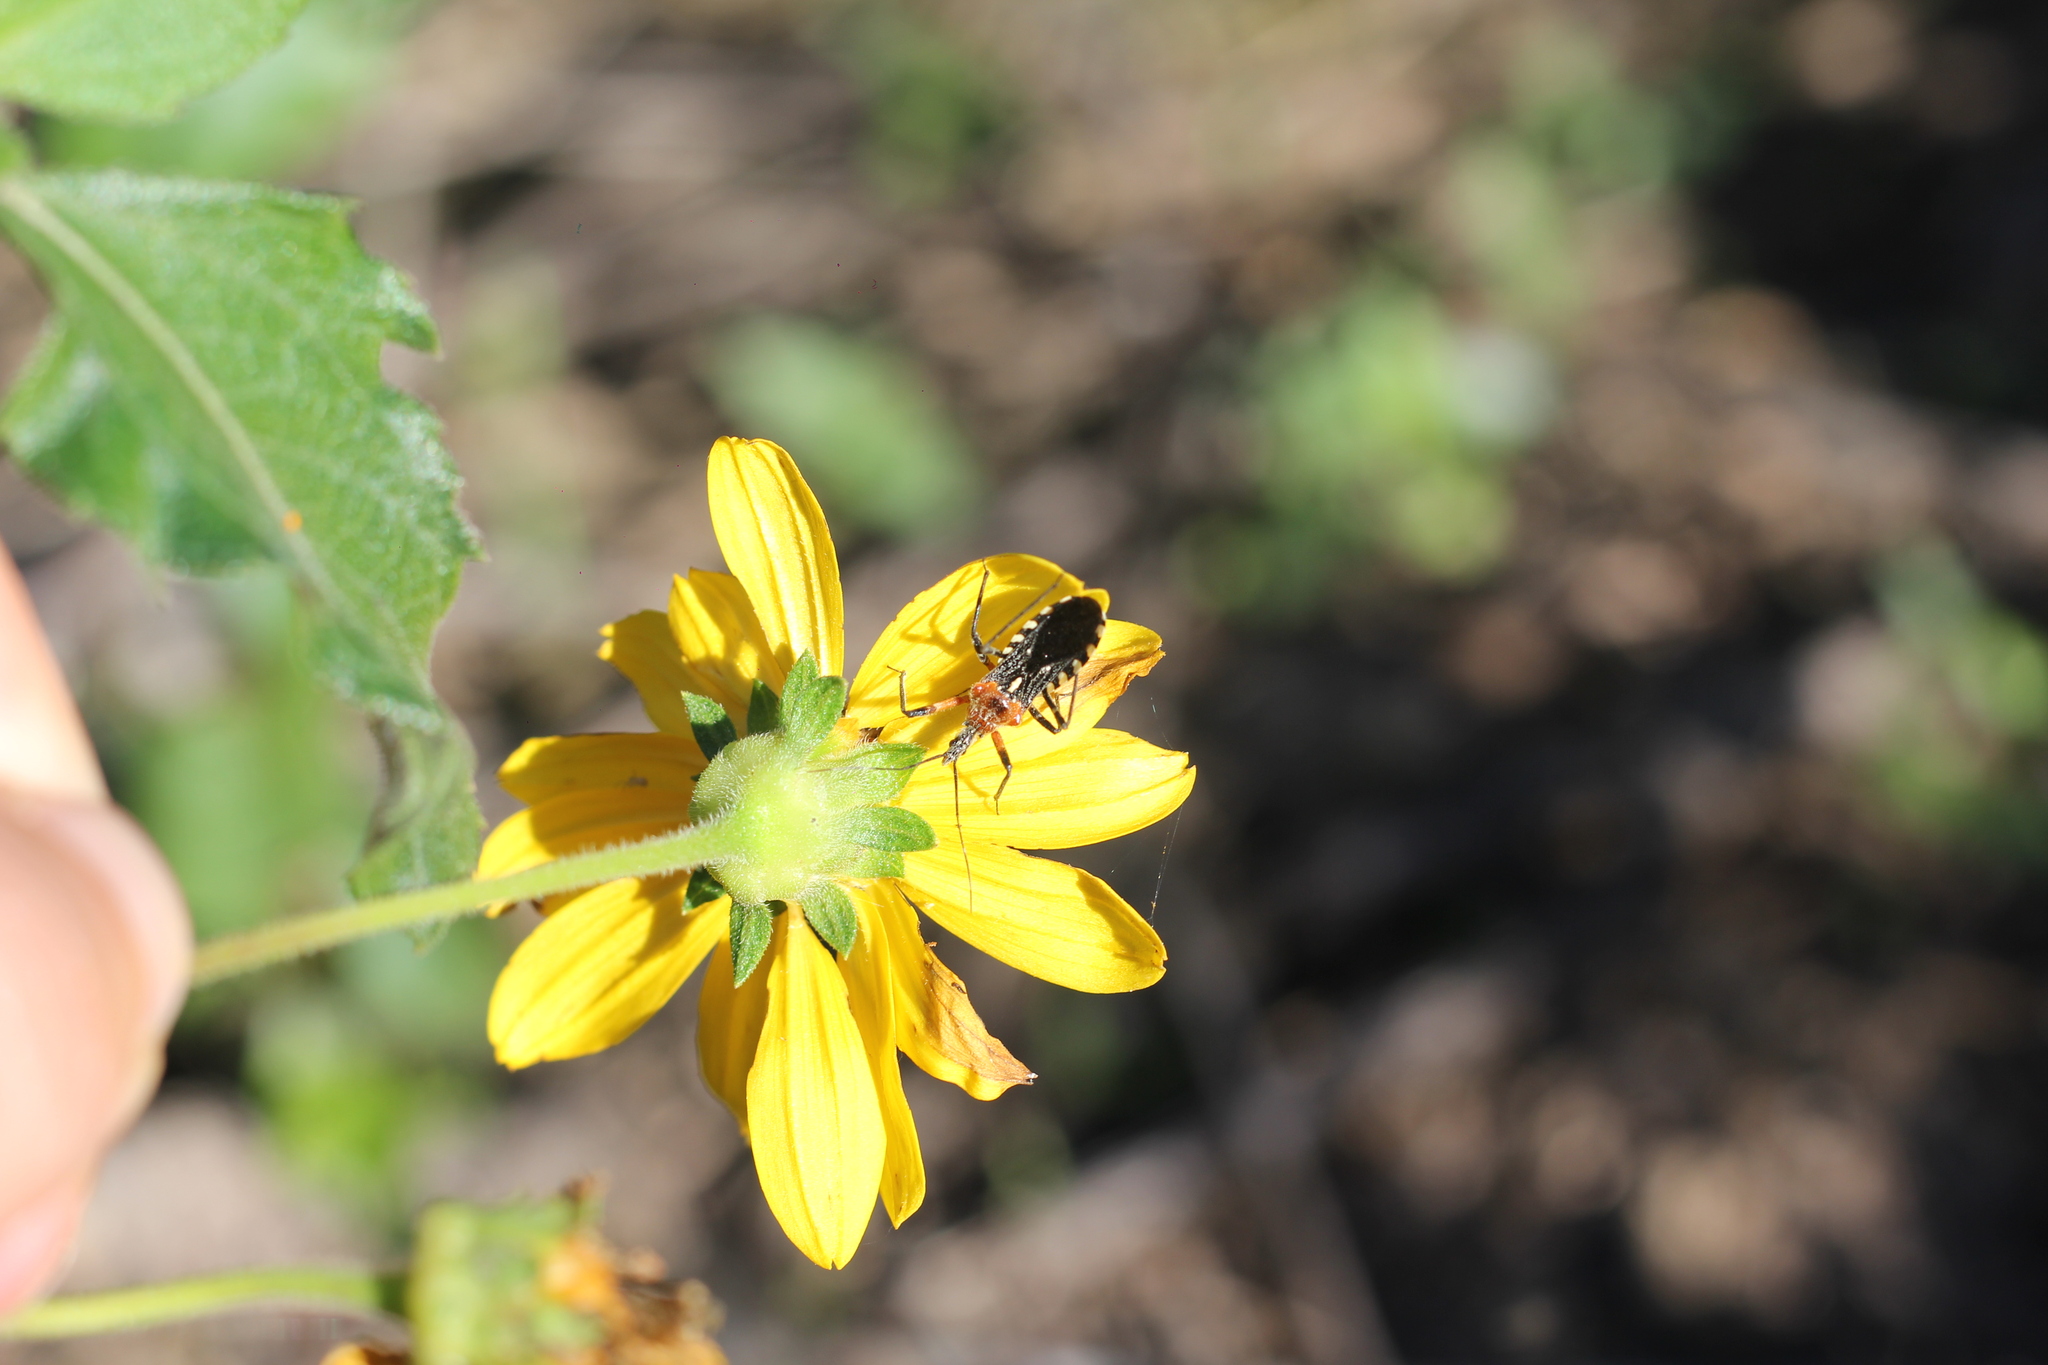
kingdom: Animalia
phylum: Arthropoda
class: Insecta
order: Hemiptera
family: Reduviidae
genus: Cosmoclopius
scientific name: Cosmoclopius poecilus
